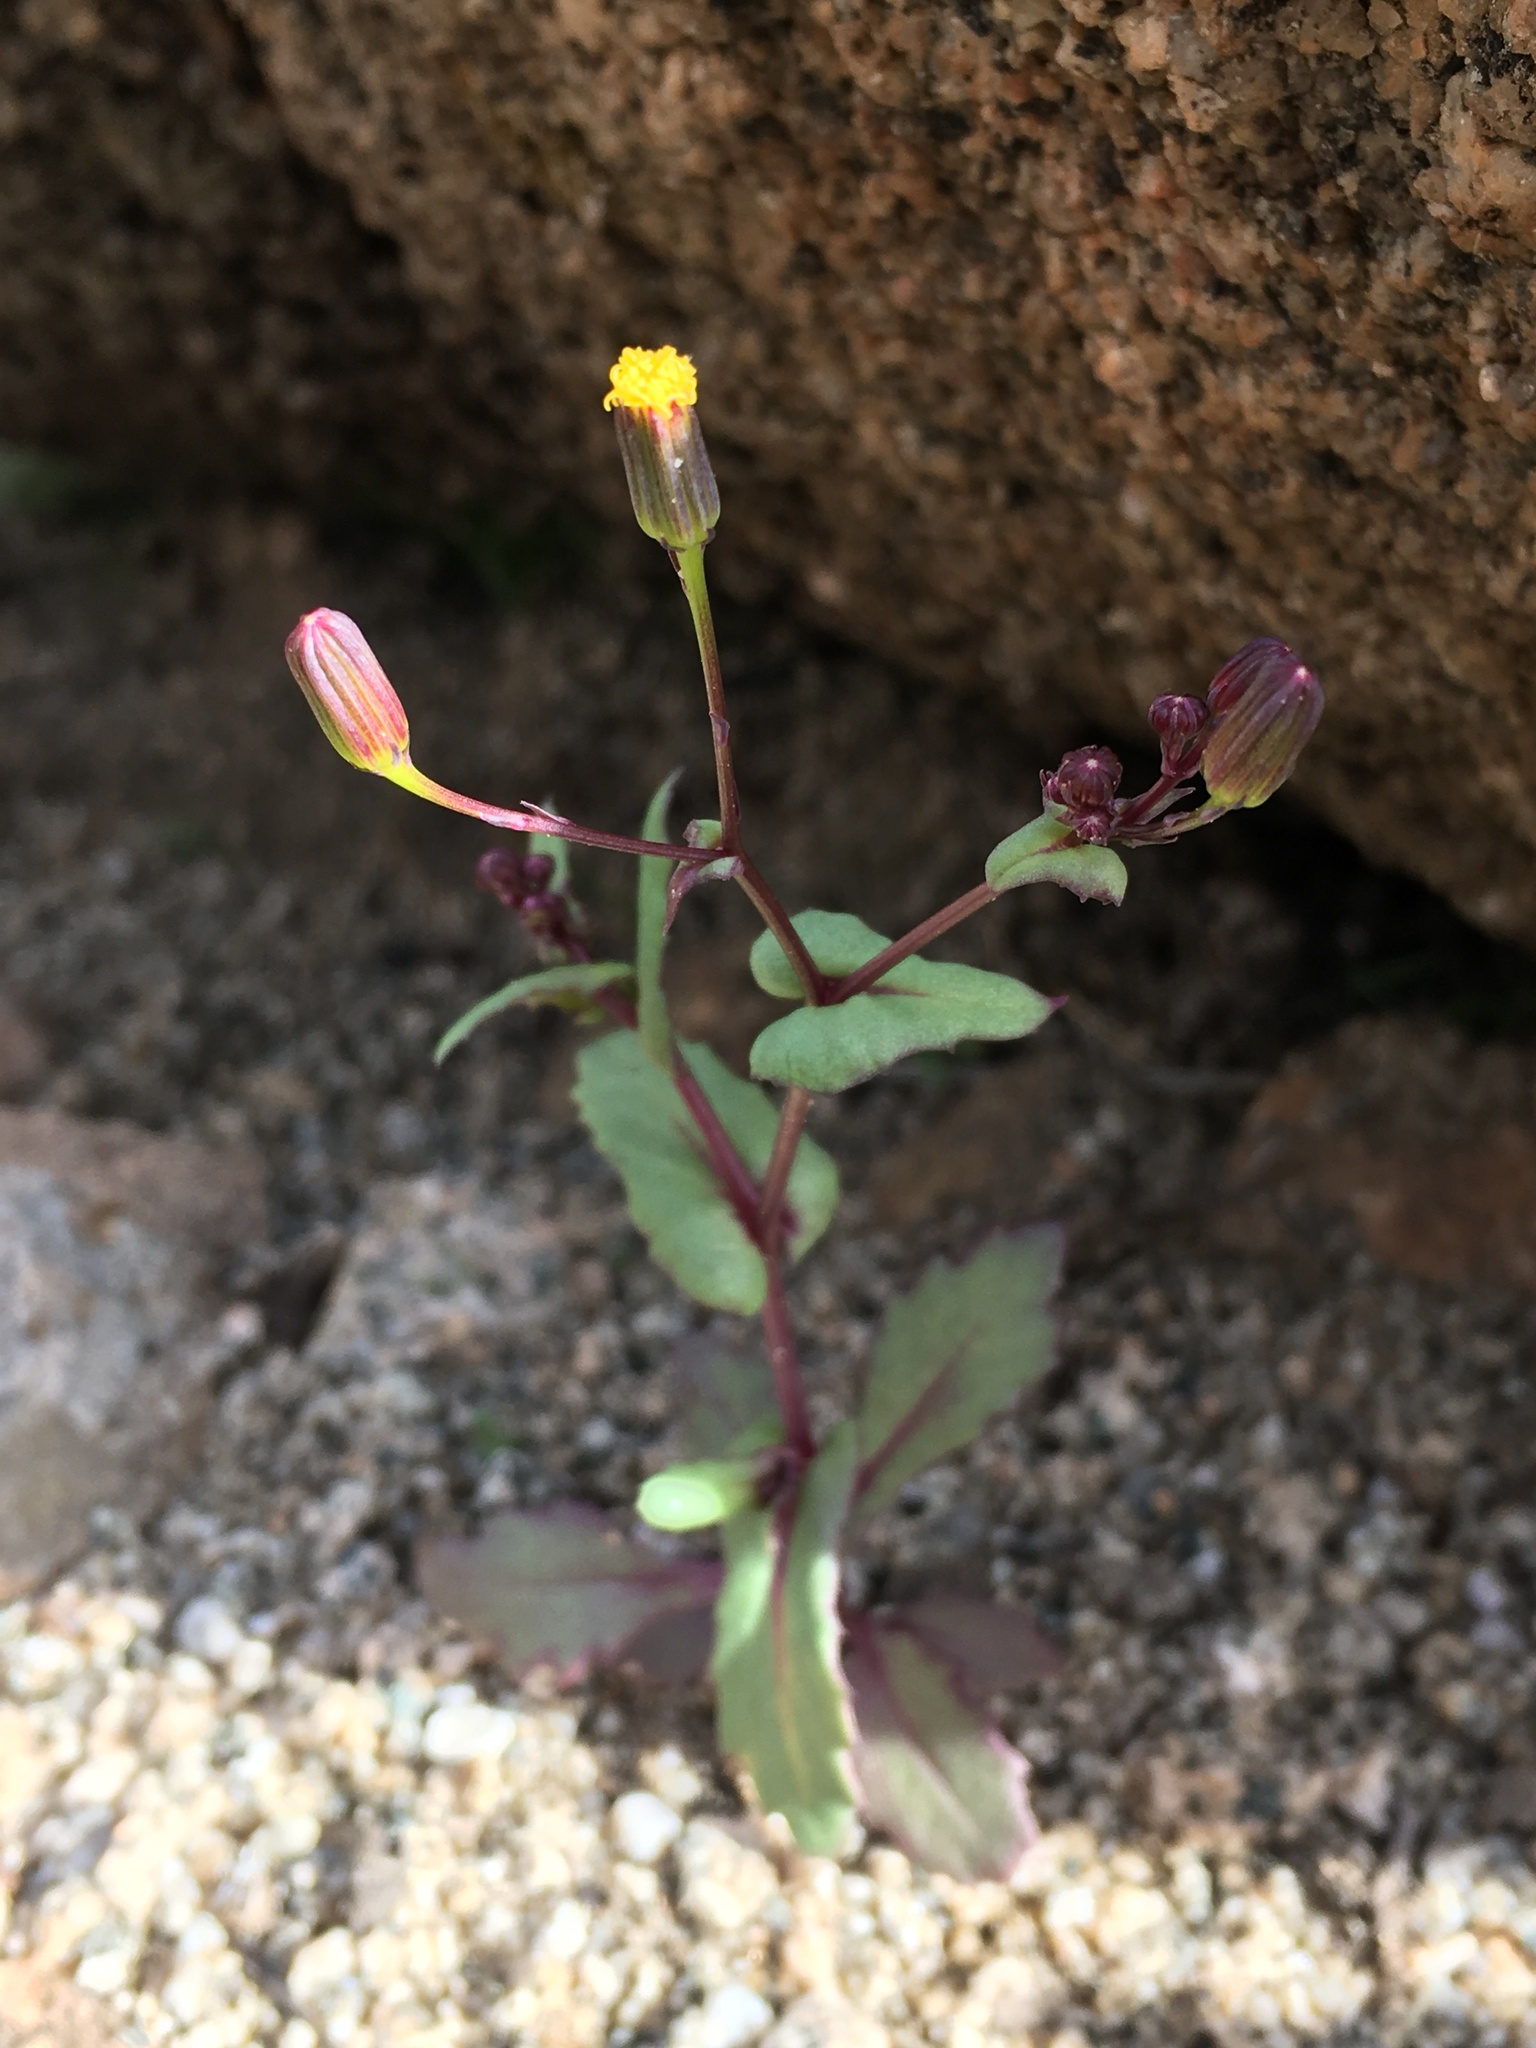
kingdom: Plantae
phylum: Tracheophyta
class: Magnoliopsida
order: Asterales
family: Asteraceae
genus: Senecio
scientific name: Senecio mohavensis
